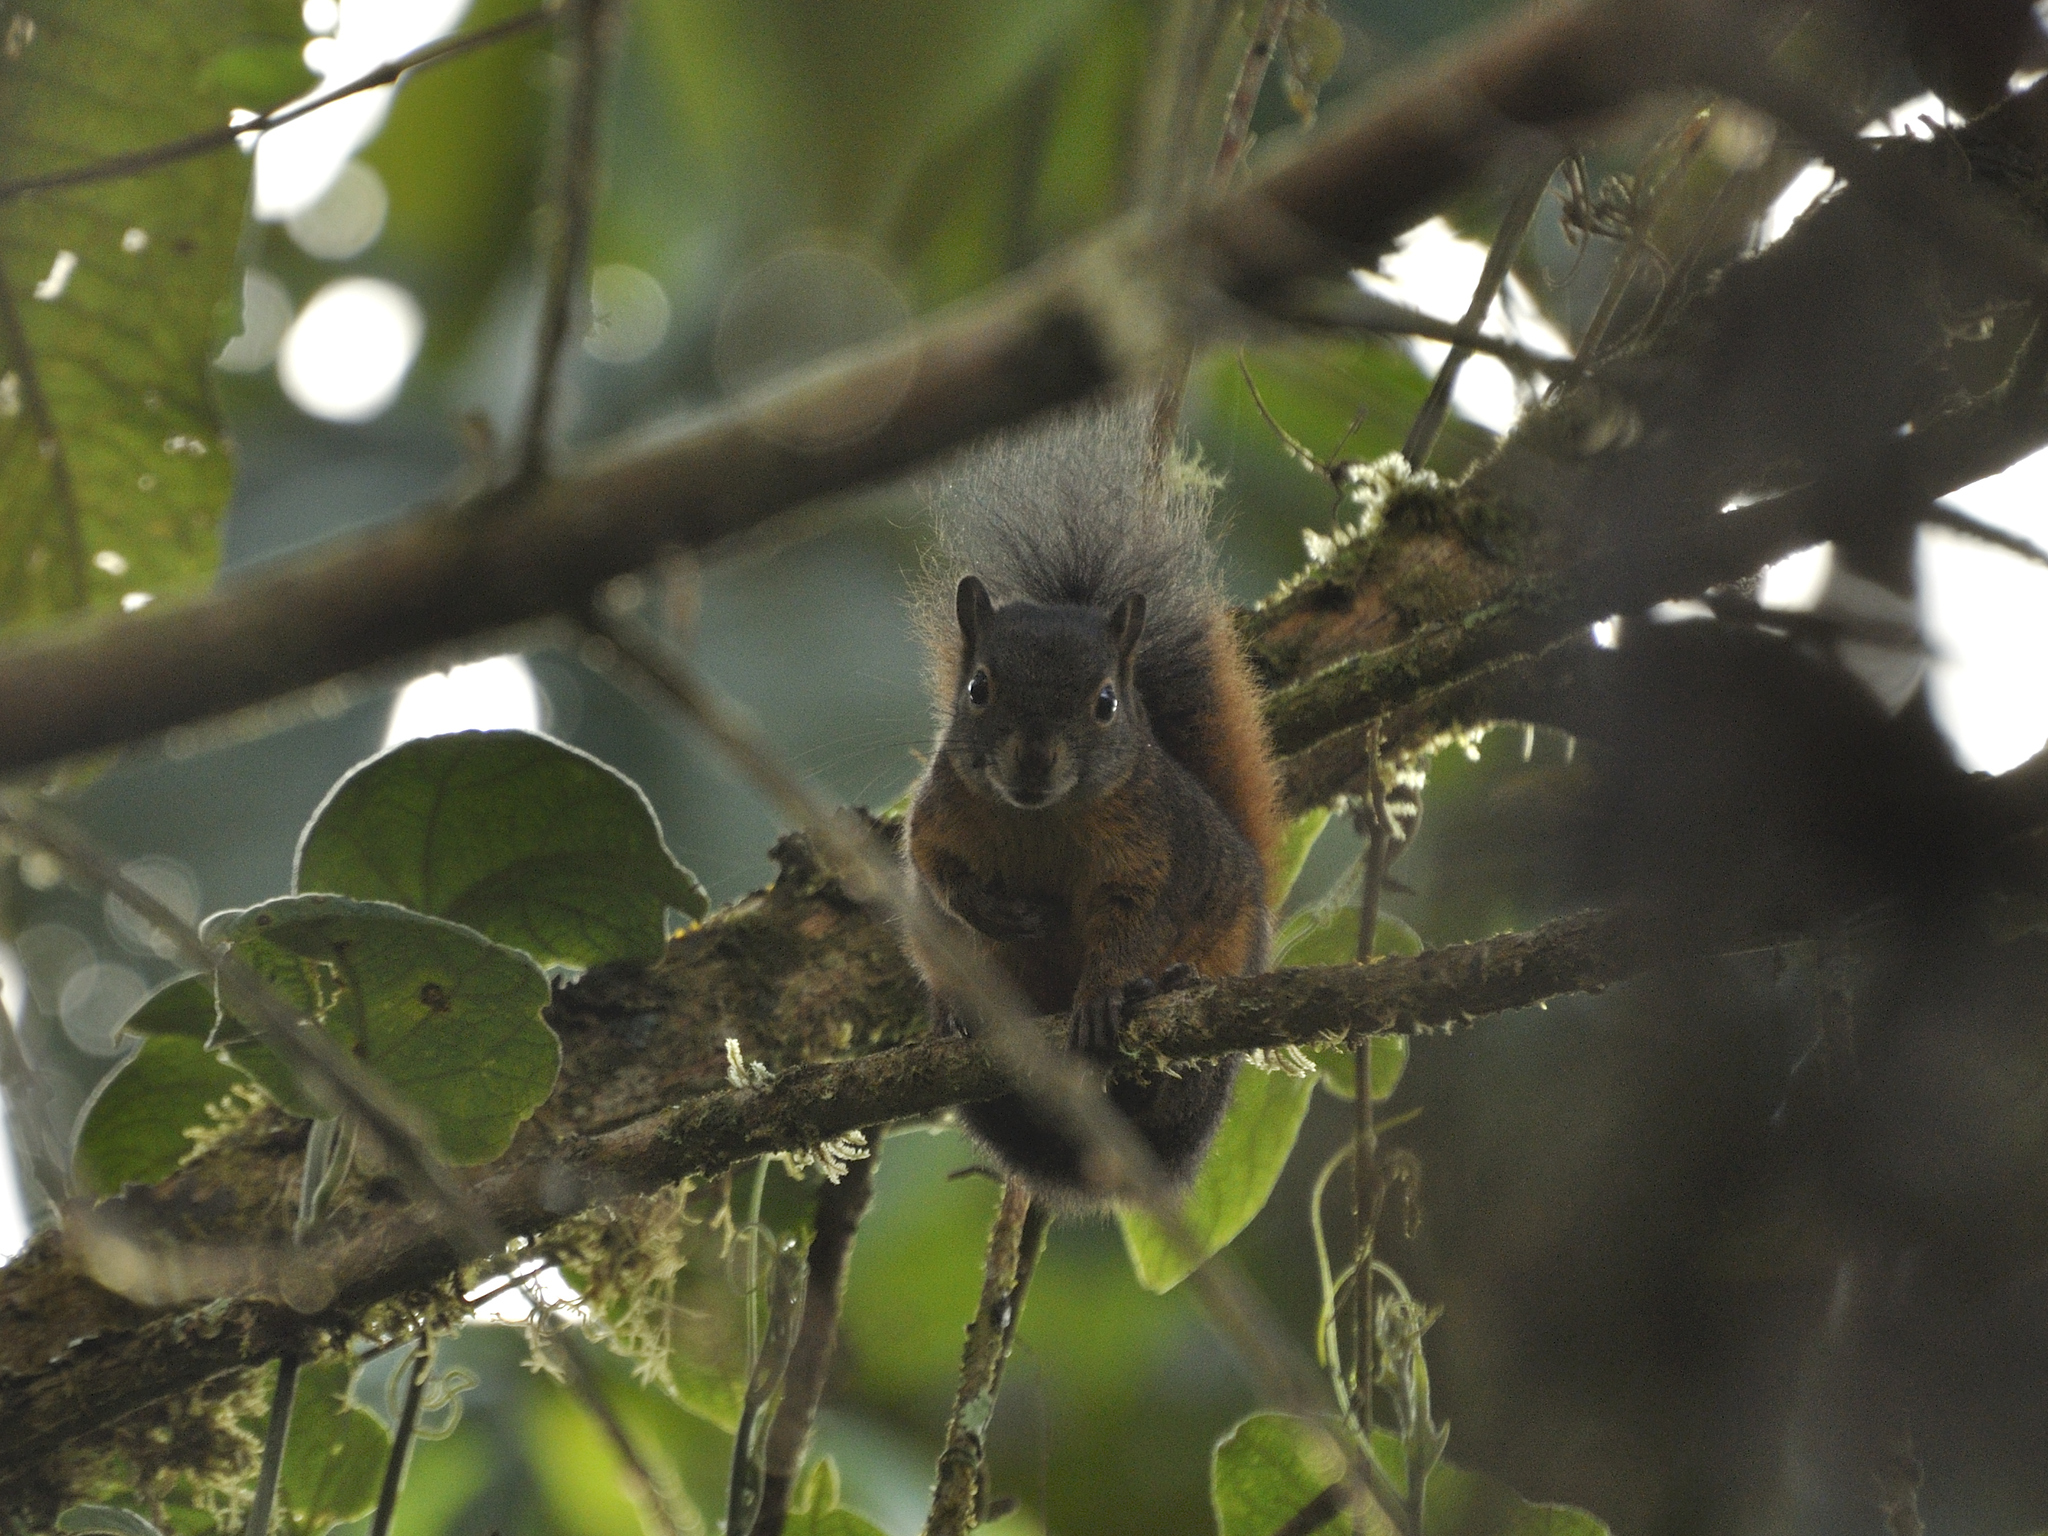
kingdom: Animalia
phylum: Chordata
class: Mammalia
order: Rodentia
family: Sciuridae
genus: Sciurus
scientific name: Sciurus granatensis
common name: Red-tailed squirrel
